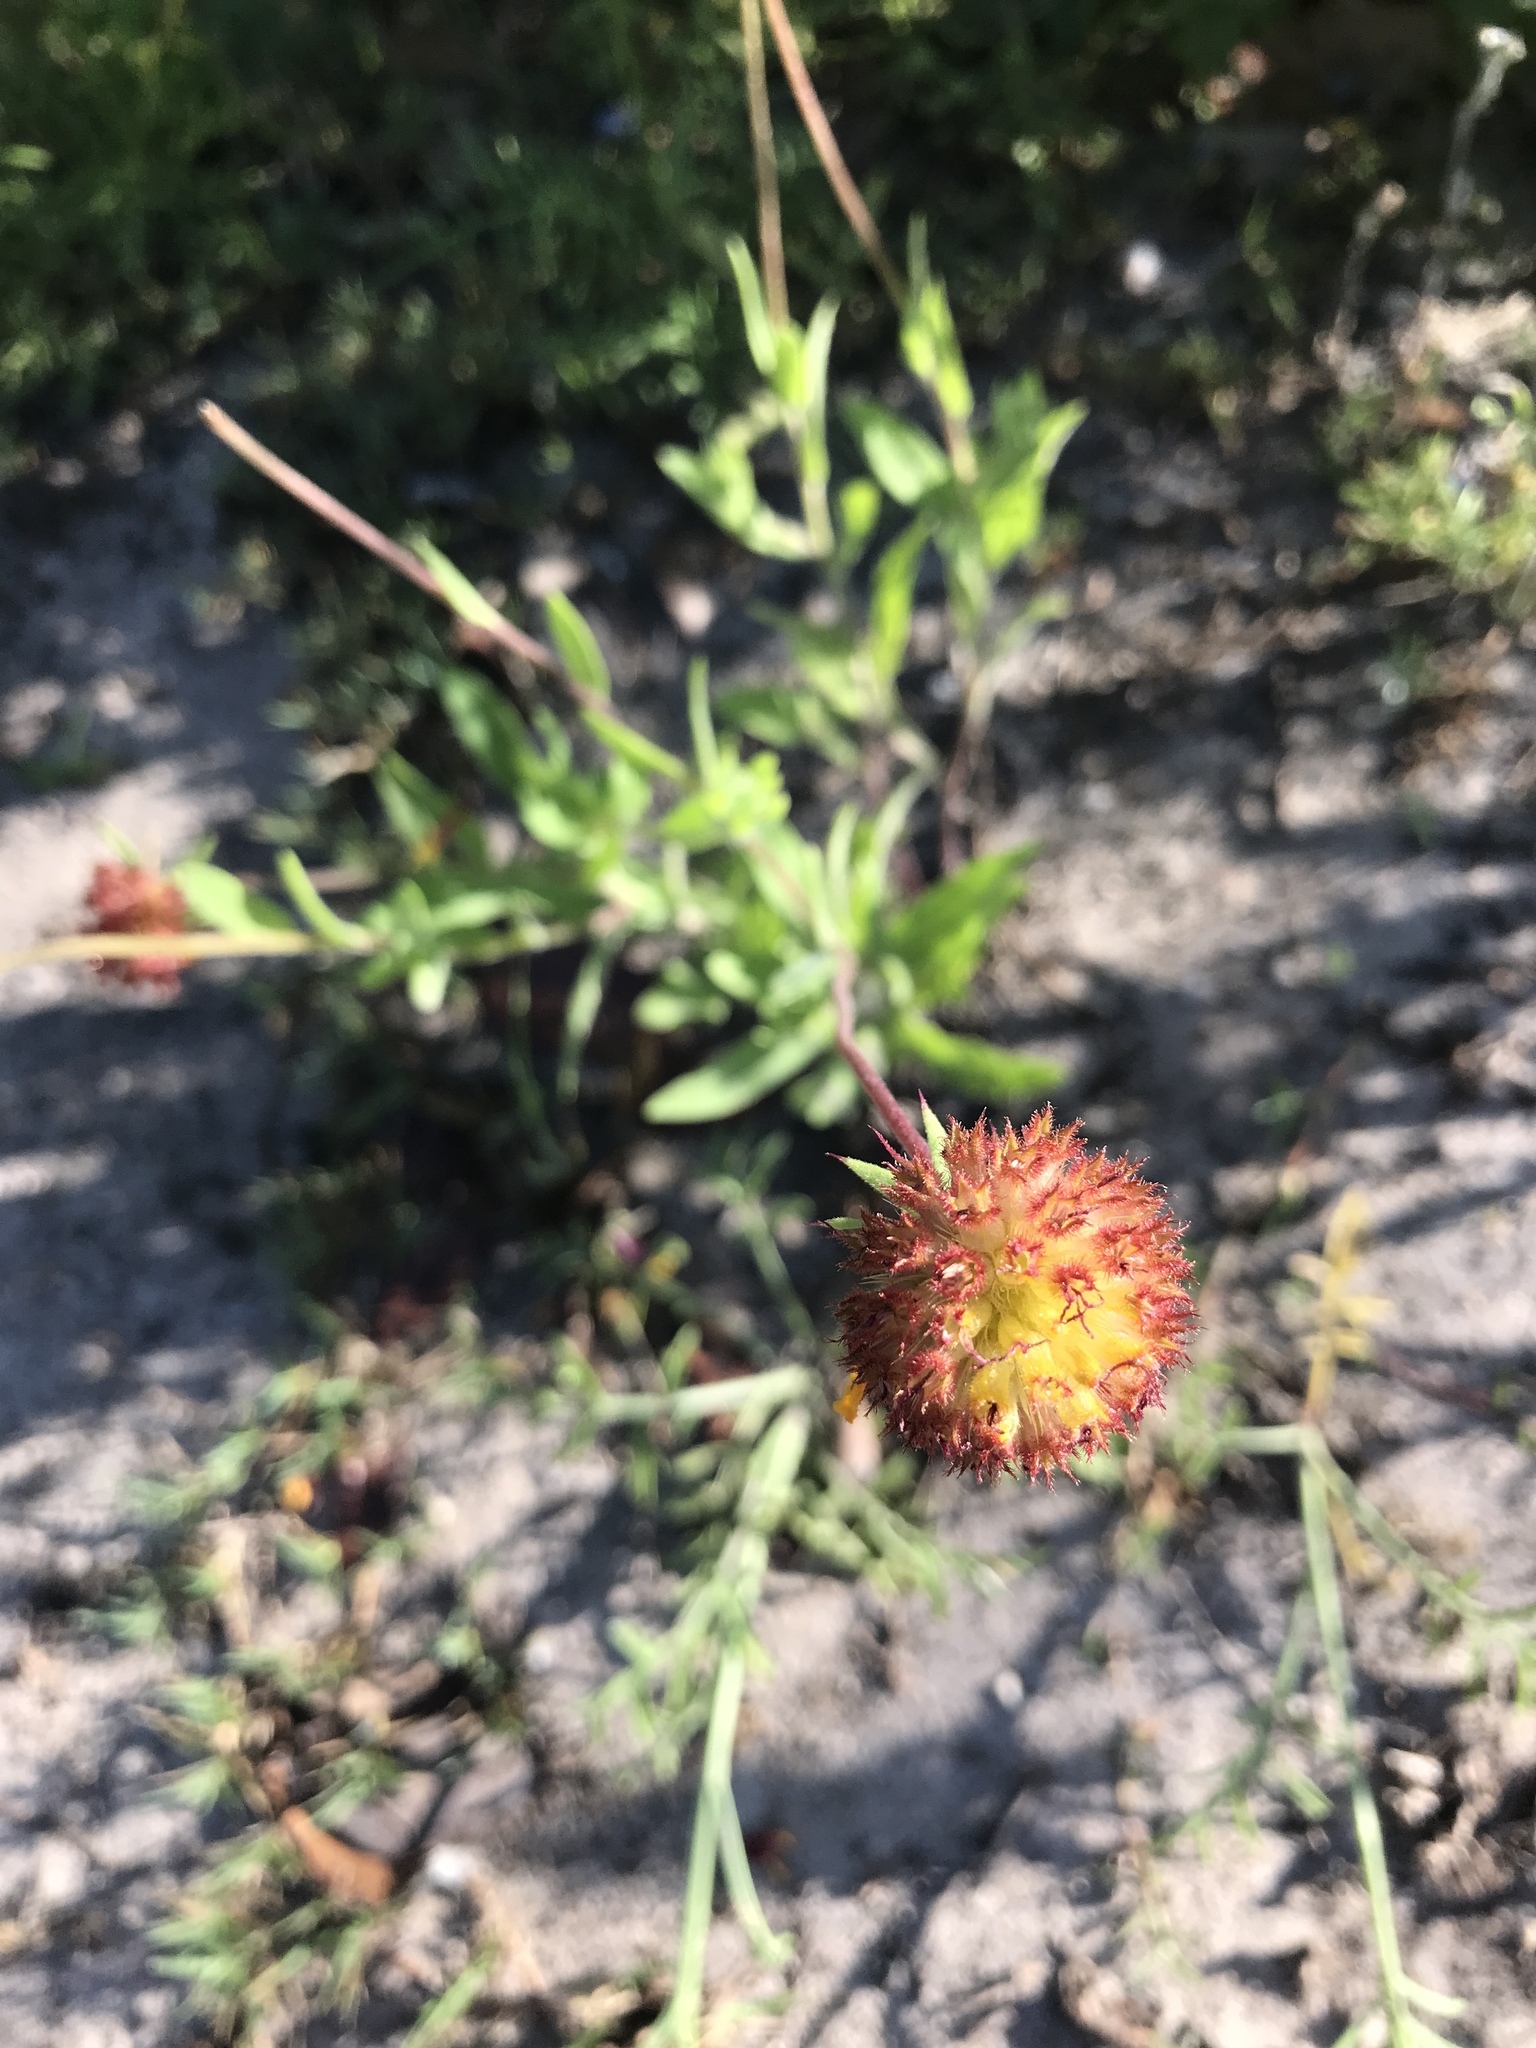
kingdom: Plantae
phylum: Tracheophyta
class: Magnoliopsida
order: Asterales
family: Asteraceae
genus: Gaillardia
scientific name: Gaillardia suavis
